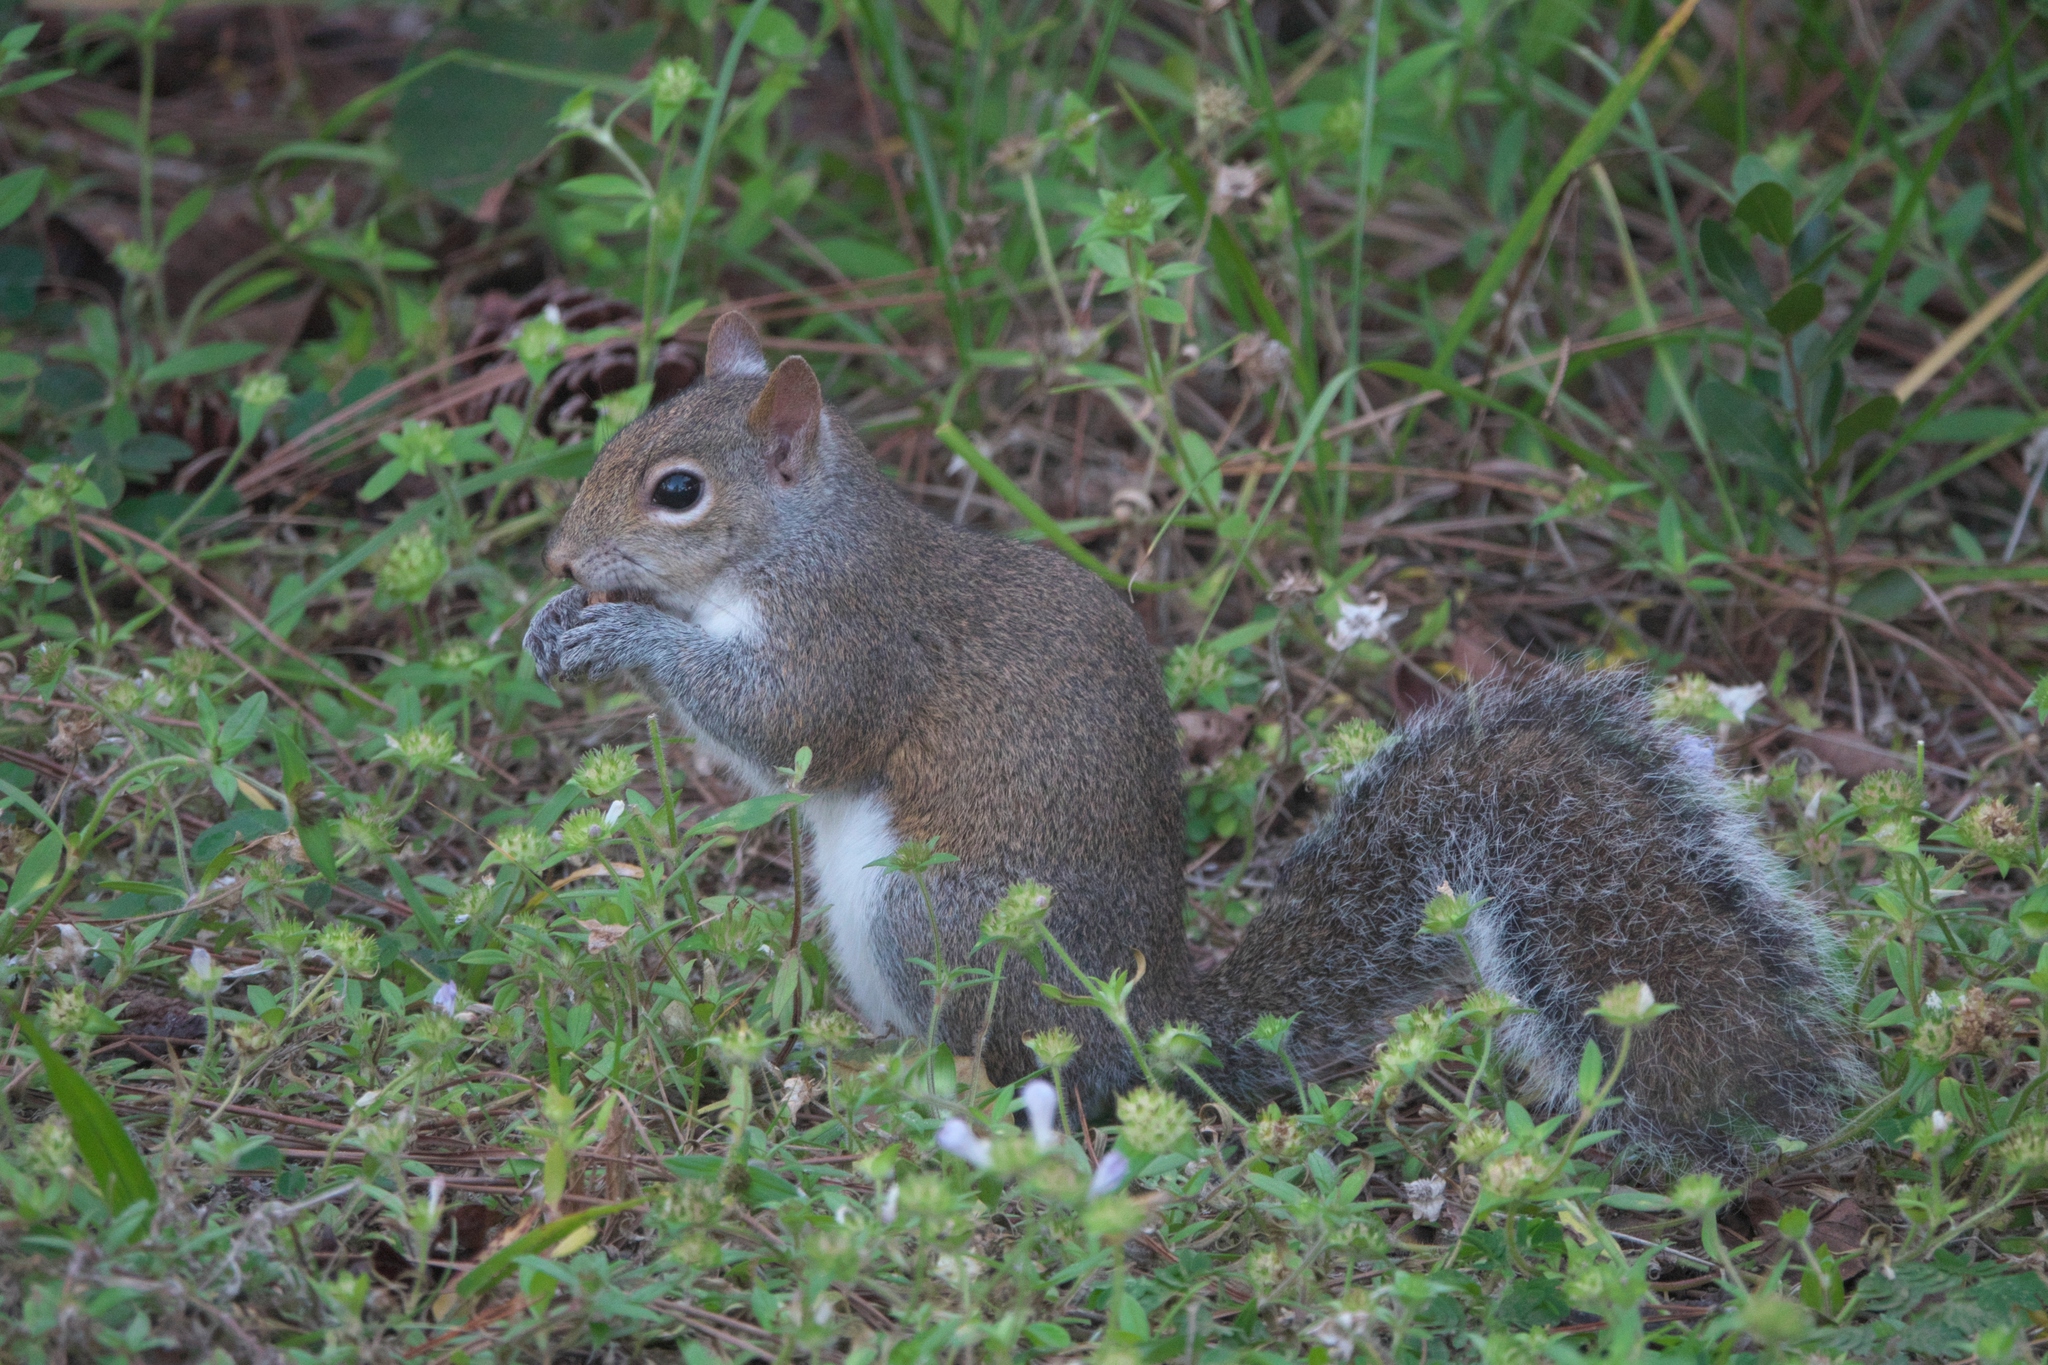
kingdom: Animalia
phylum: Chordata
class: Mammalia
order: Rodentia
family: Sciuridae
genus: Sciurus
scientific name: Sciurus carolinensis
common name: Eastern gray squirrel
